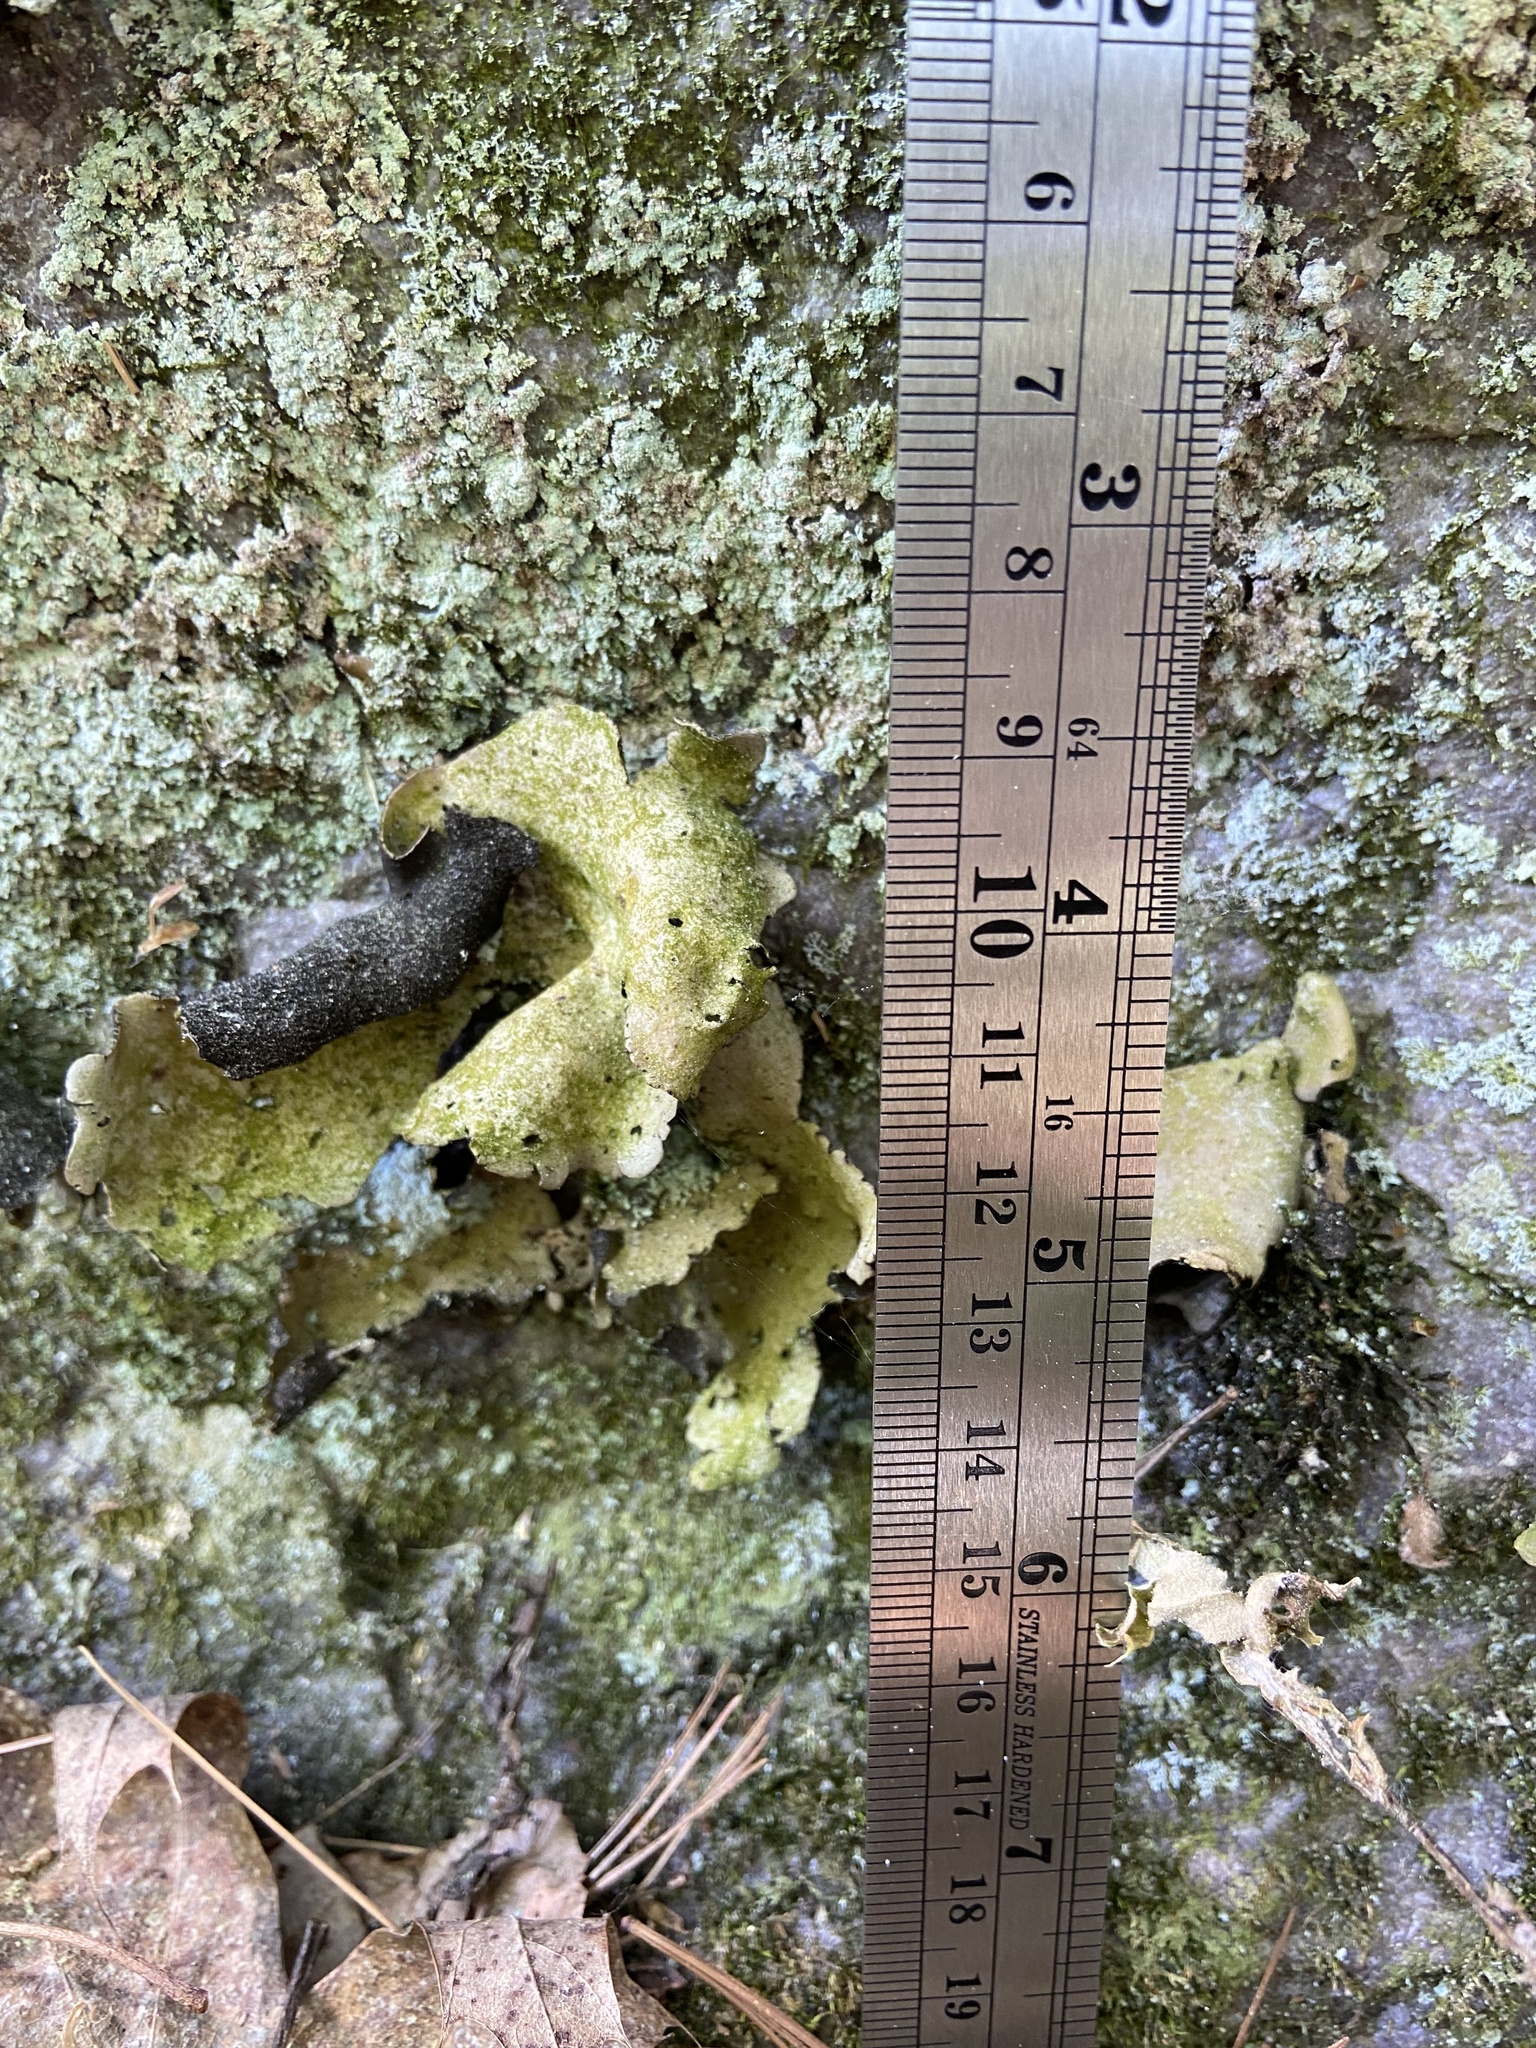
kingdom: Fungi
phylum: Ascomycota
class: Lecanoromycetes
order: Umbilicariales
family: Umbilicariaceae
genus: Umbilicaria
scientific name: Umbilicaria mammulata
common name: Smooth rock tripe
